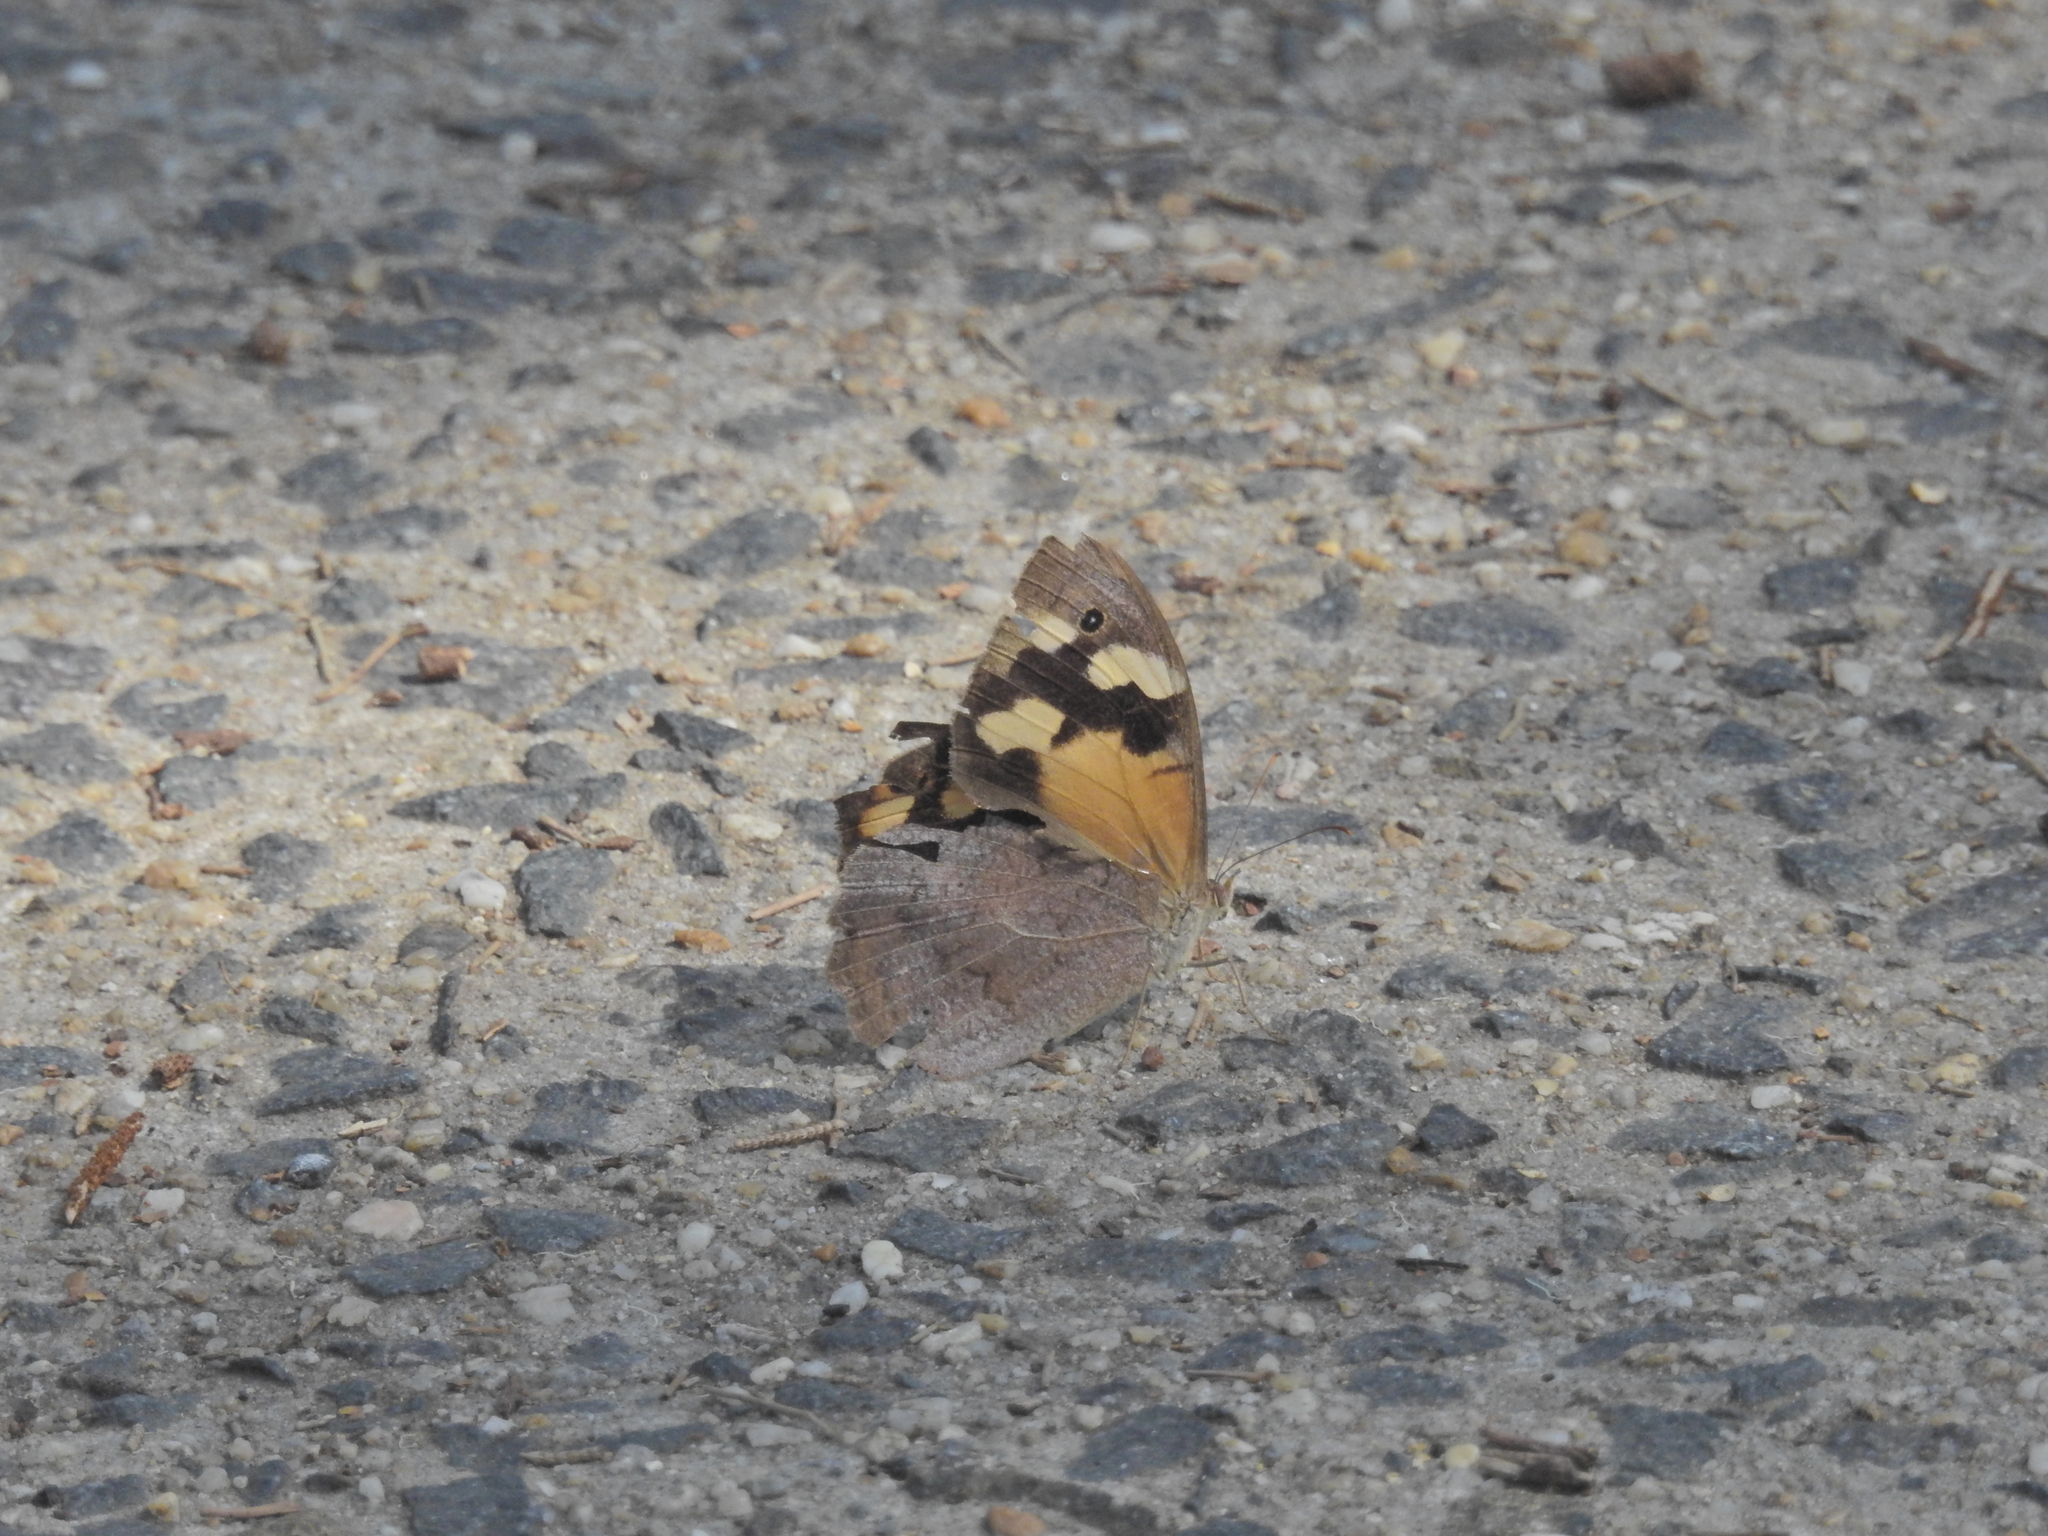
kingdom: Animalia
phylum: Arthropoda
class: Insecta
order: Lepidoptera
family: Nymphalidae
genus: Heteronympha
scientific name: Heteronympha merope
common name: Common brown
